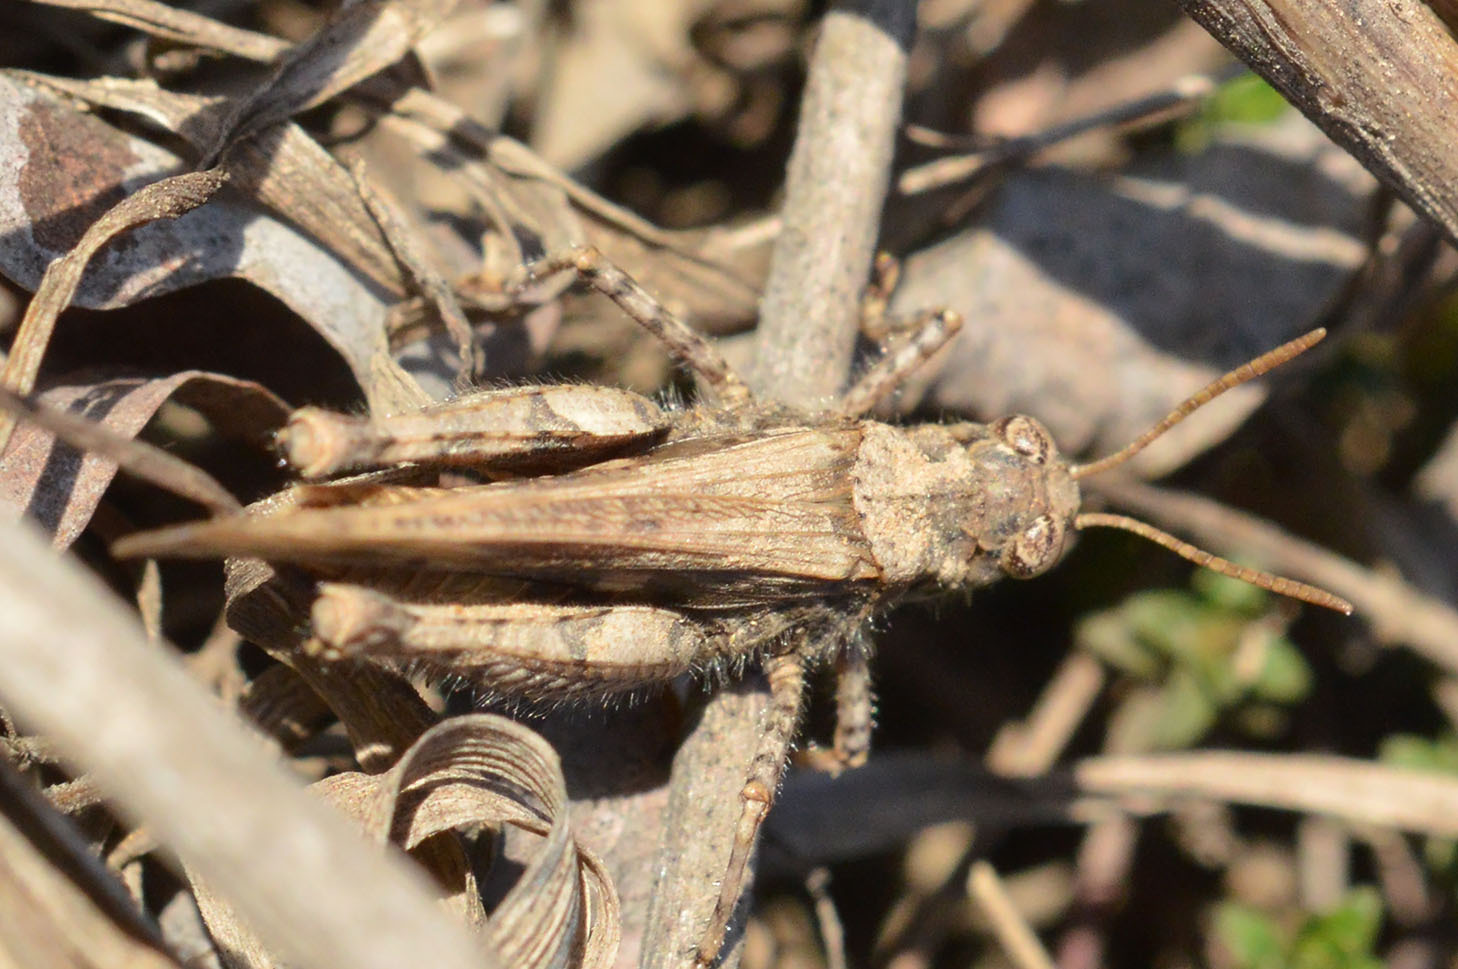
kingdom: Animalia
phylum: Arthropoda
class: Insecta
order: Orthoptera
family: Acrididae
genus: Acrotylus
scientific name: Acrotylus insubricus
